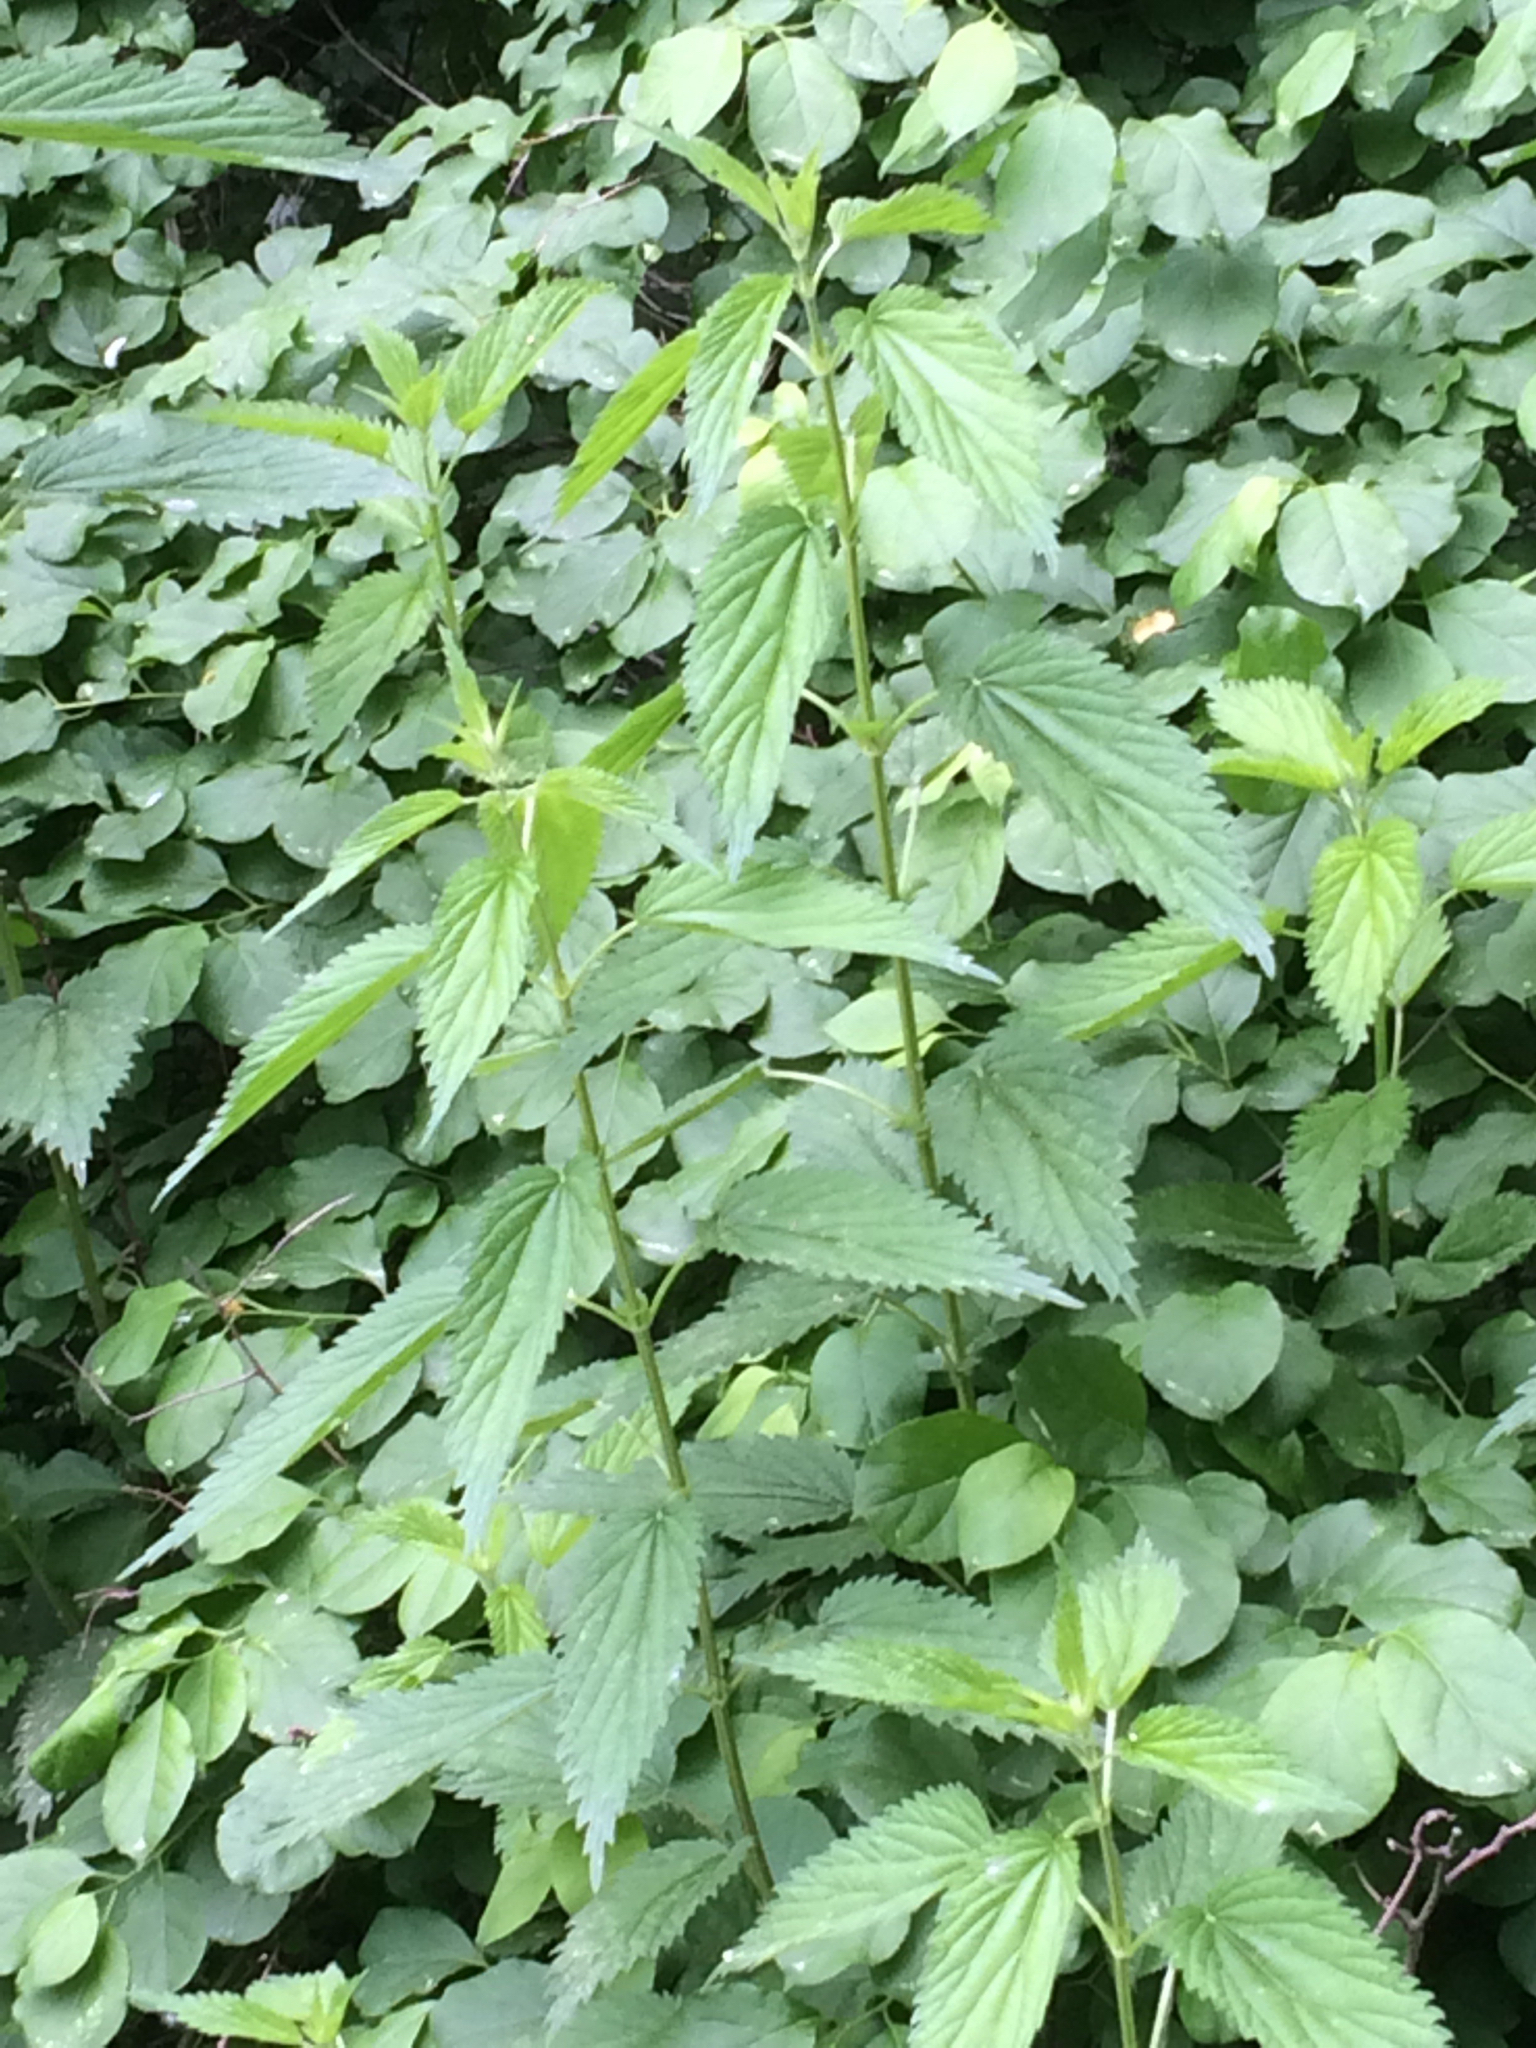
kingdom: Plantae
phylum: Tracheophyta
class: Magnoliopsida
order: Rosales
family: Urticaceae
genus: Urtica
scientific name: Urtica dioica
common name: Common nettle
